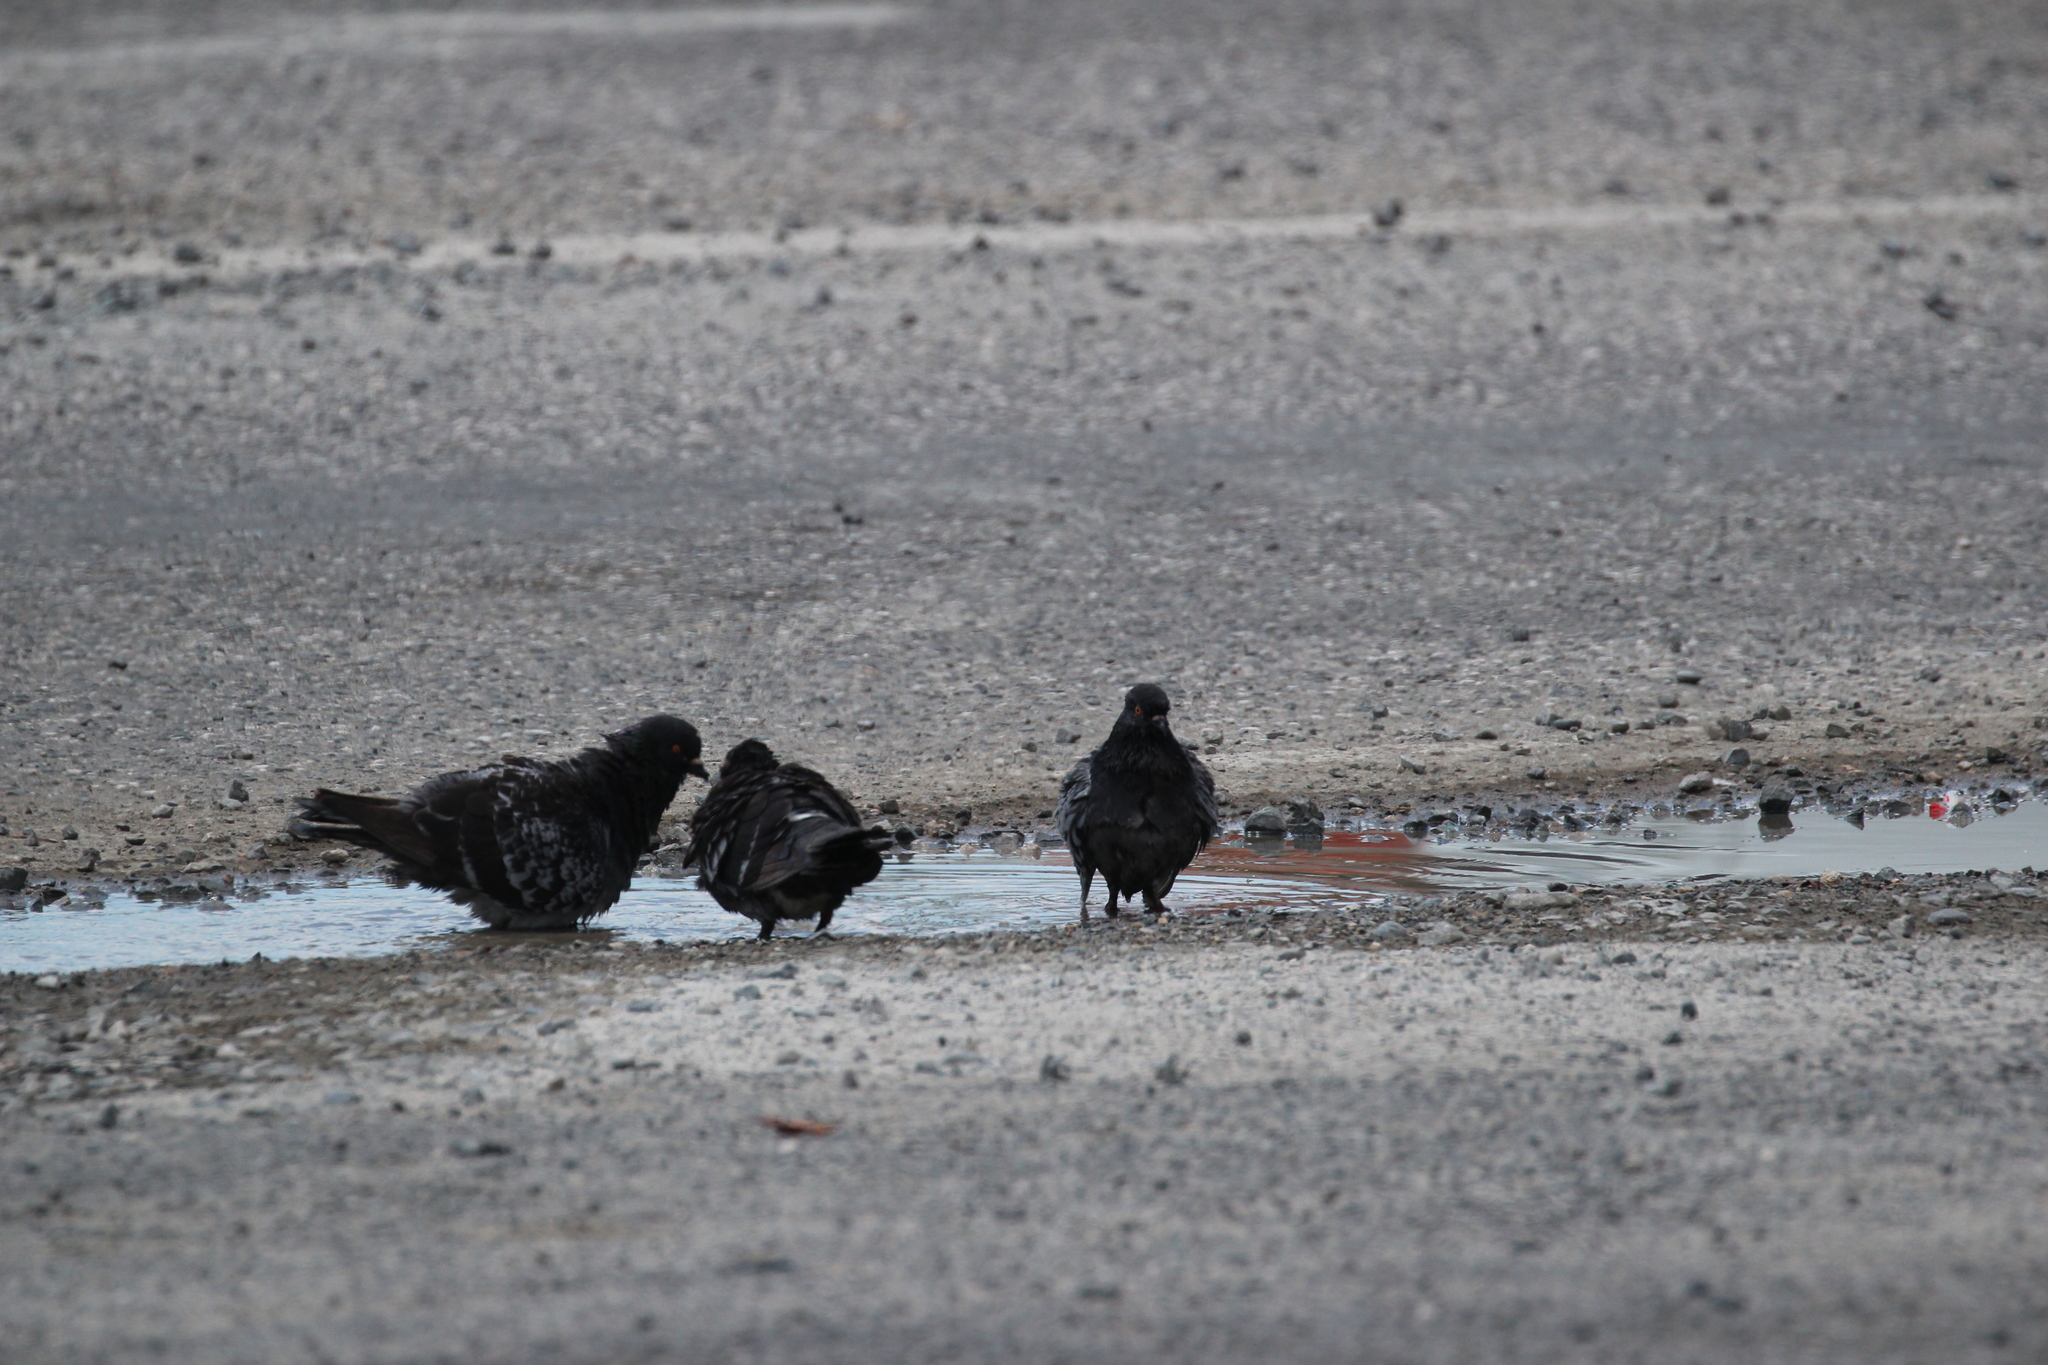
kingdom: Animalia
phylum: Chordata
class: Aves
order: Columbiformes
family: Columbidae
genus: Columba
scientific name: Columba livia
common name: Rock pigeon
